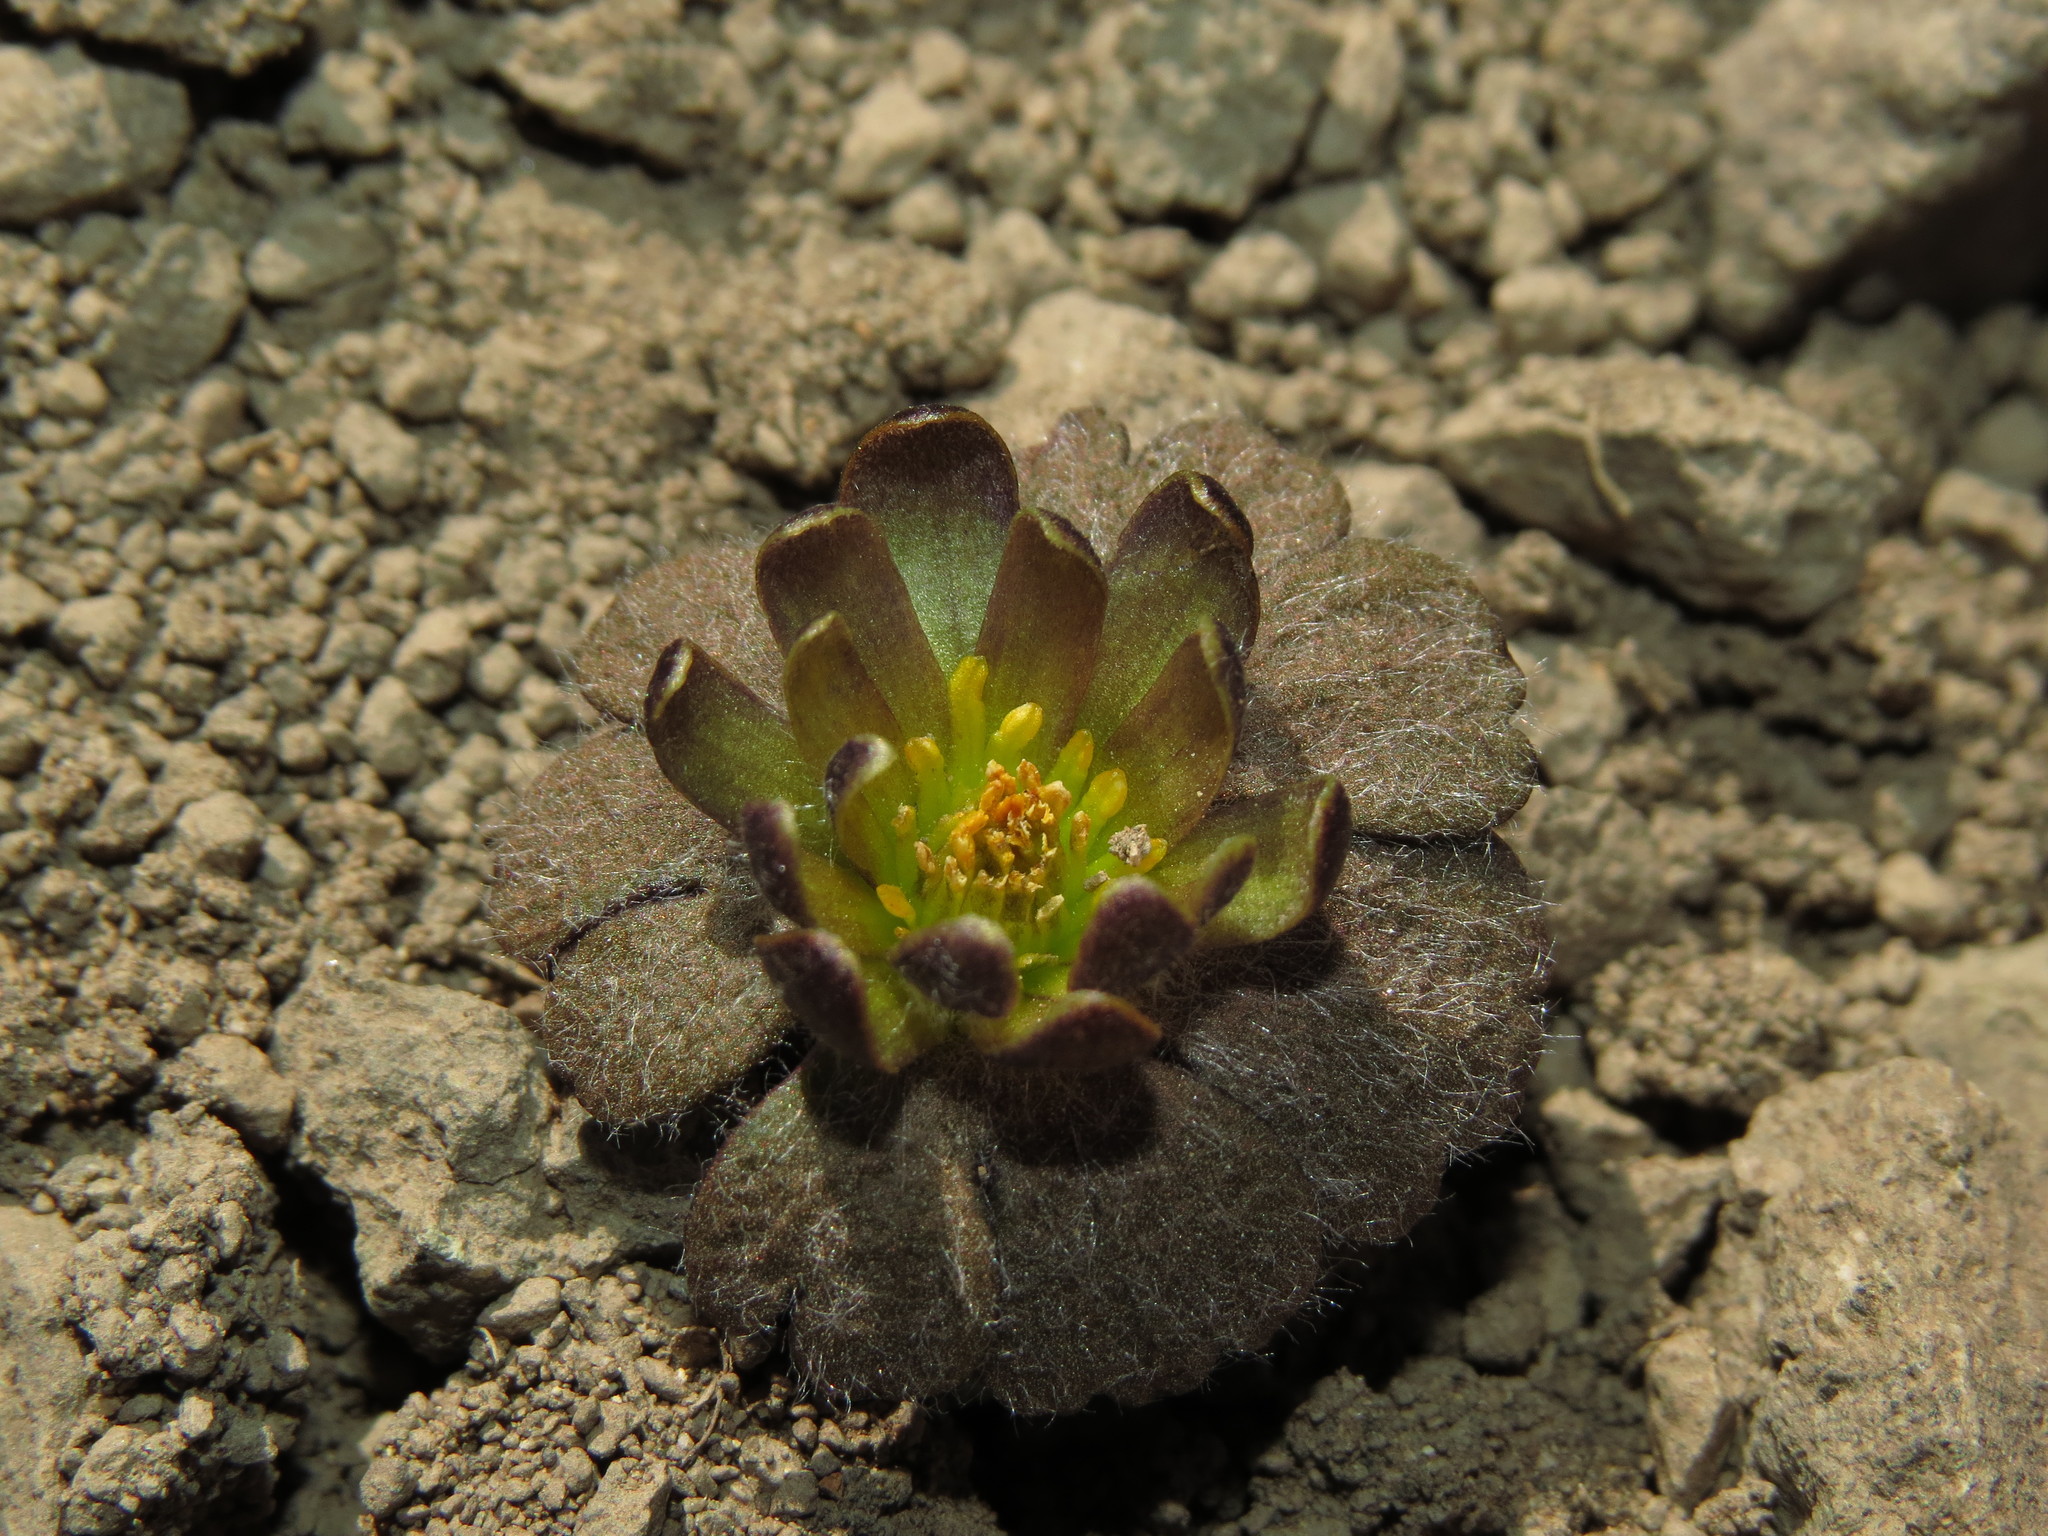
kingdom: Plantae
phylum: Tracheophyta
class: Magnoliopsida
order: Ranunculales
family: Ranunculaceae
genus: Knowltonia
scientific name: Knowltonia major
